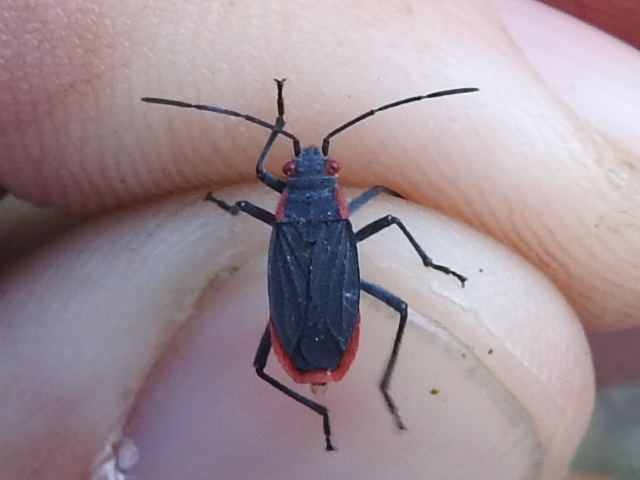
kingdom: Animalia
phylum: Arthropoda
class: Insecta
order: Hemiptera
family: Rhopalidae
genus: Jadera
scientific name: Jadera haematoloma
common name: Red-shouldered bug
